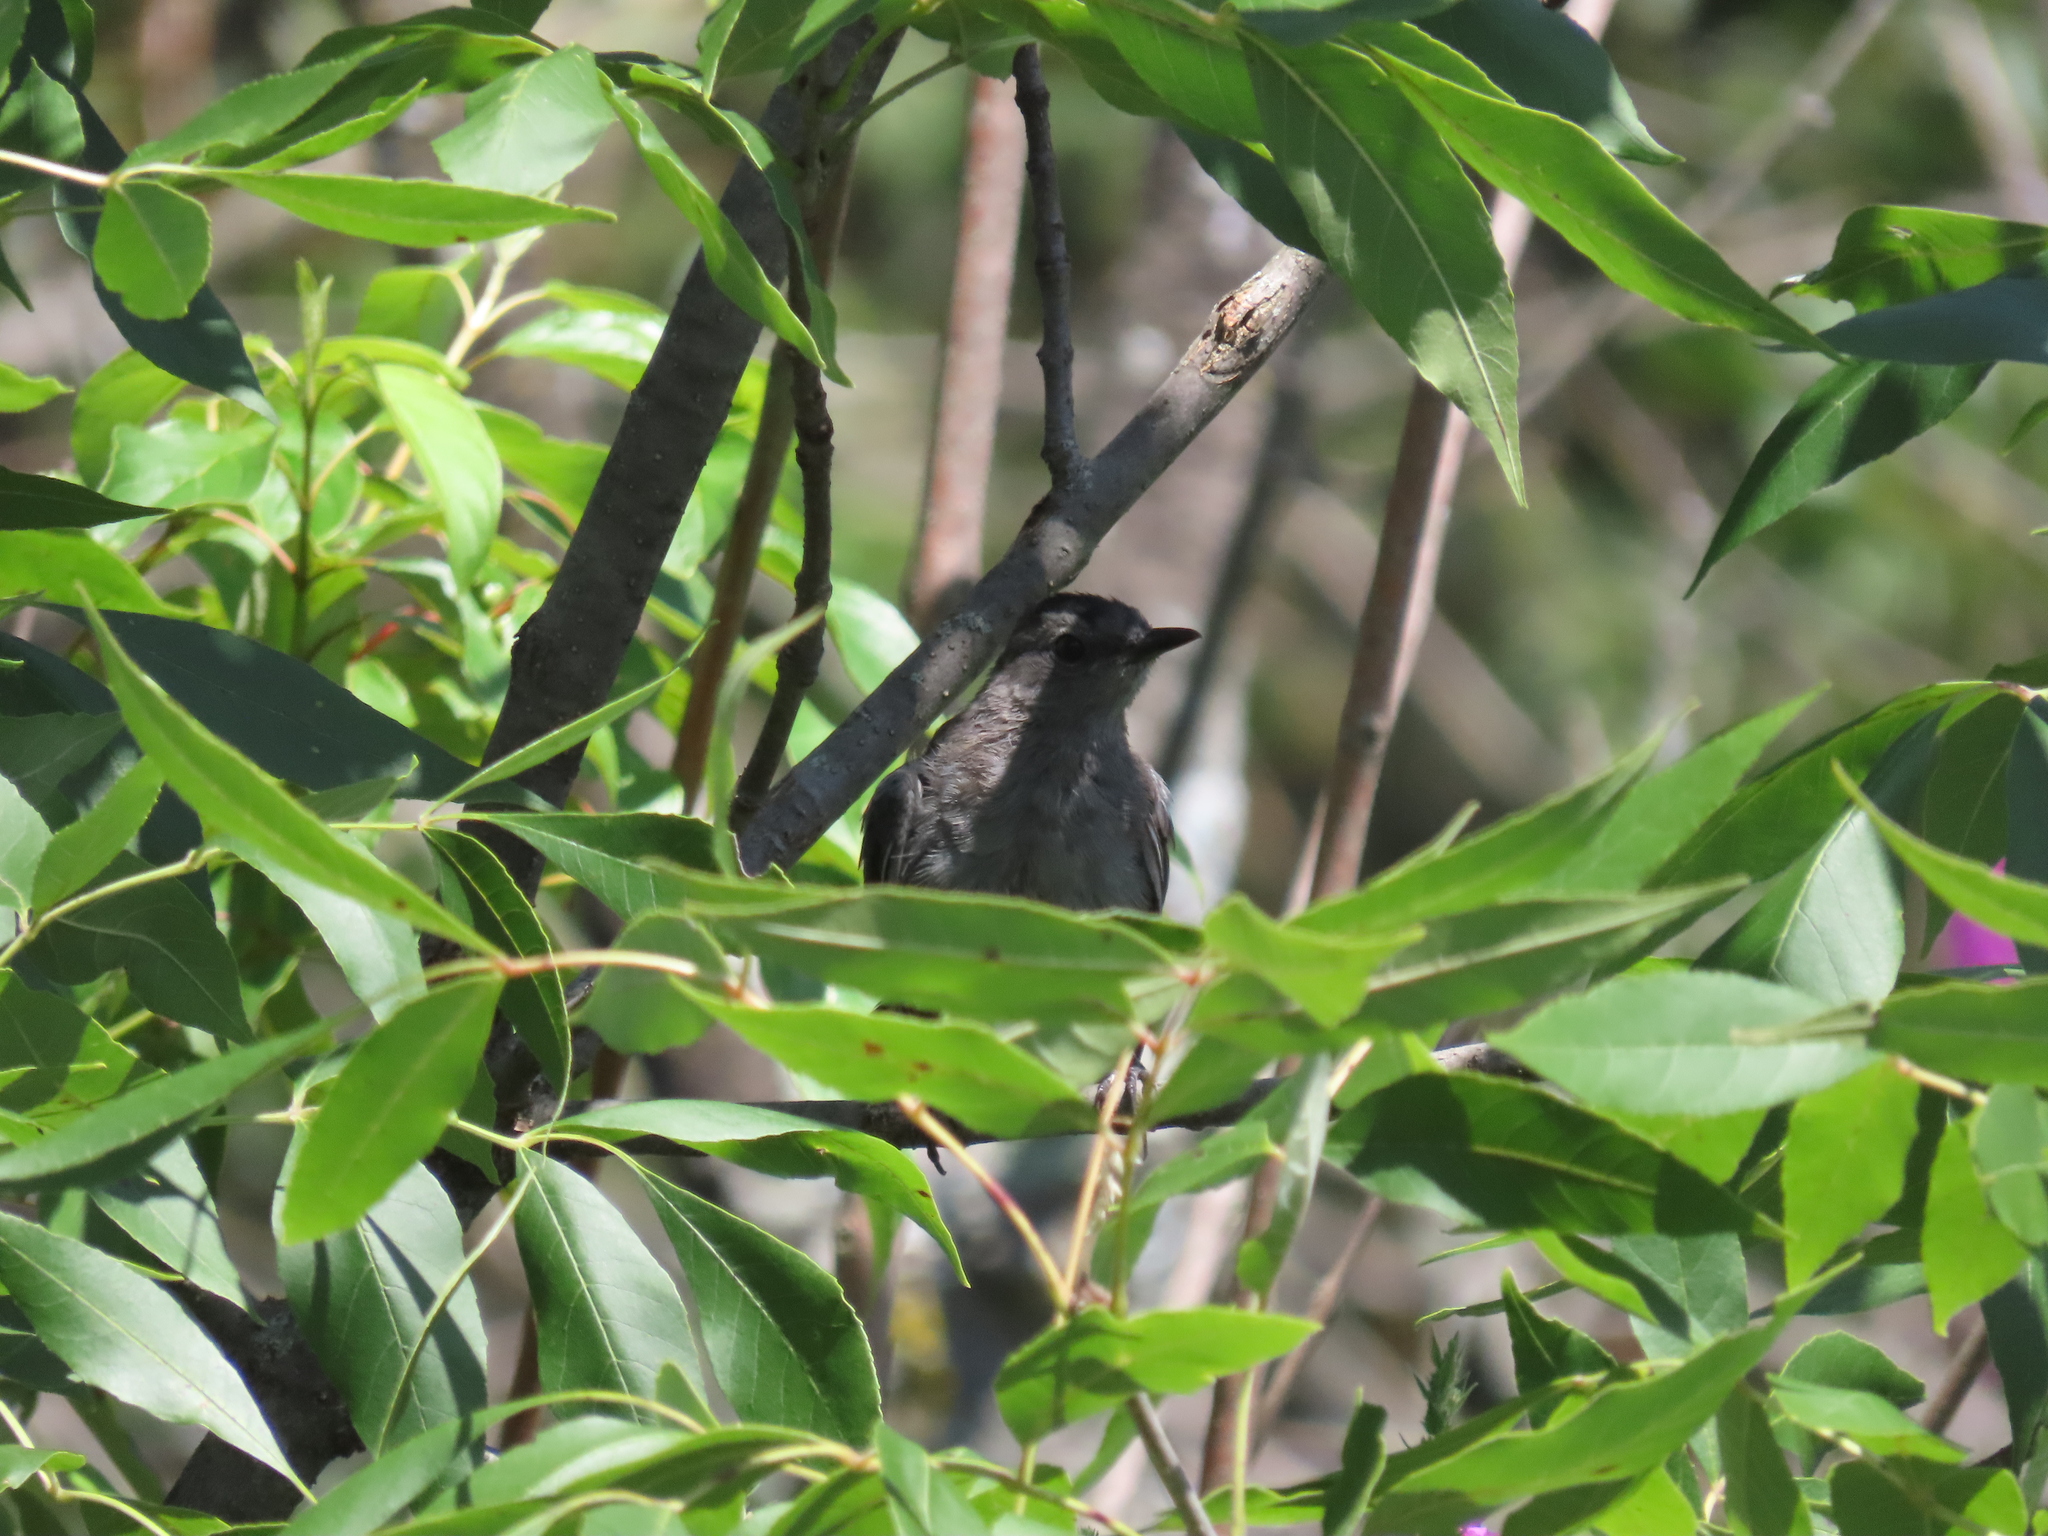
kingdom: Animalia
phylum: Chordata
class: Aves
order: Passeriformes
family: Mimidae
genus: Dumetella
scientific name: Dumetella carolinensis
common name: Gray catbird
